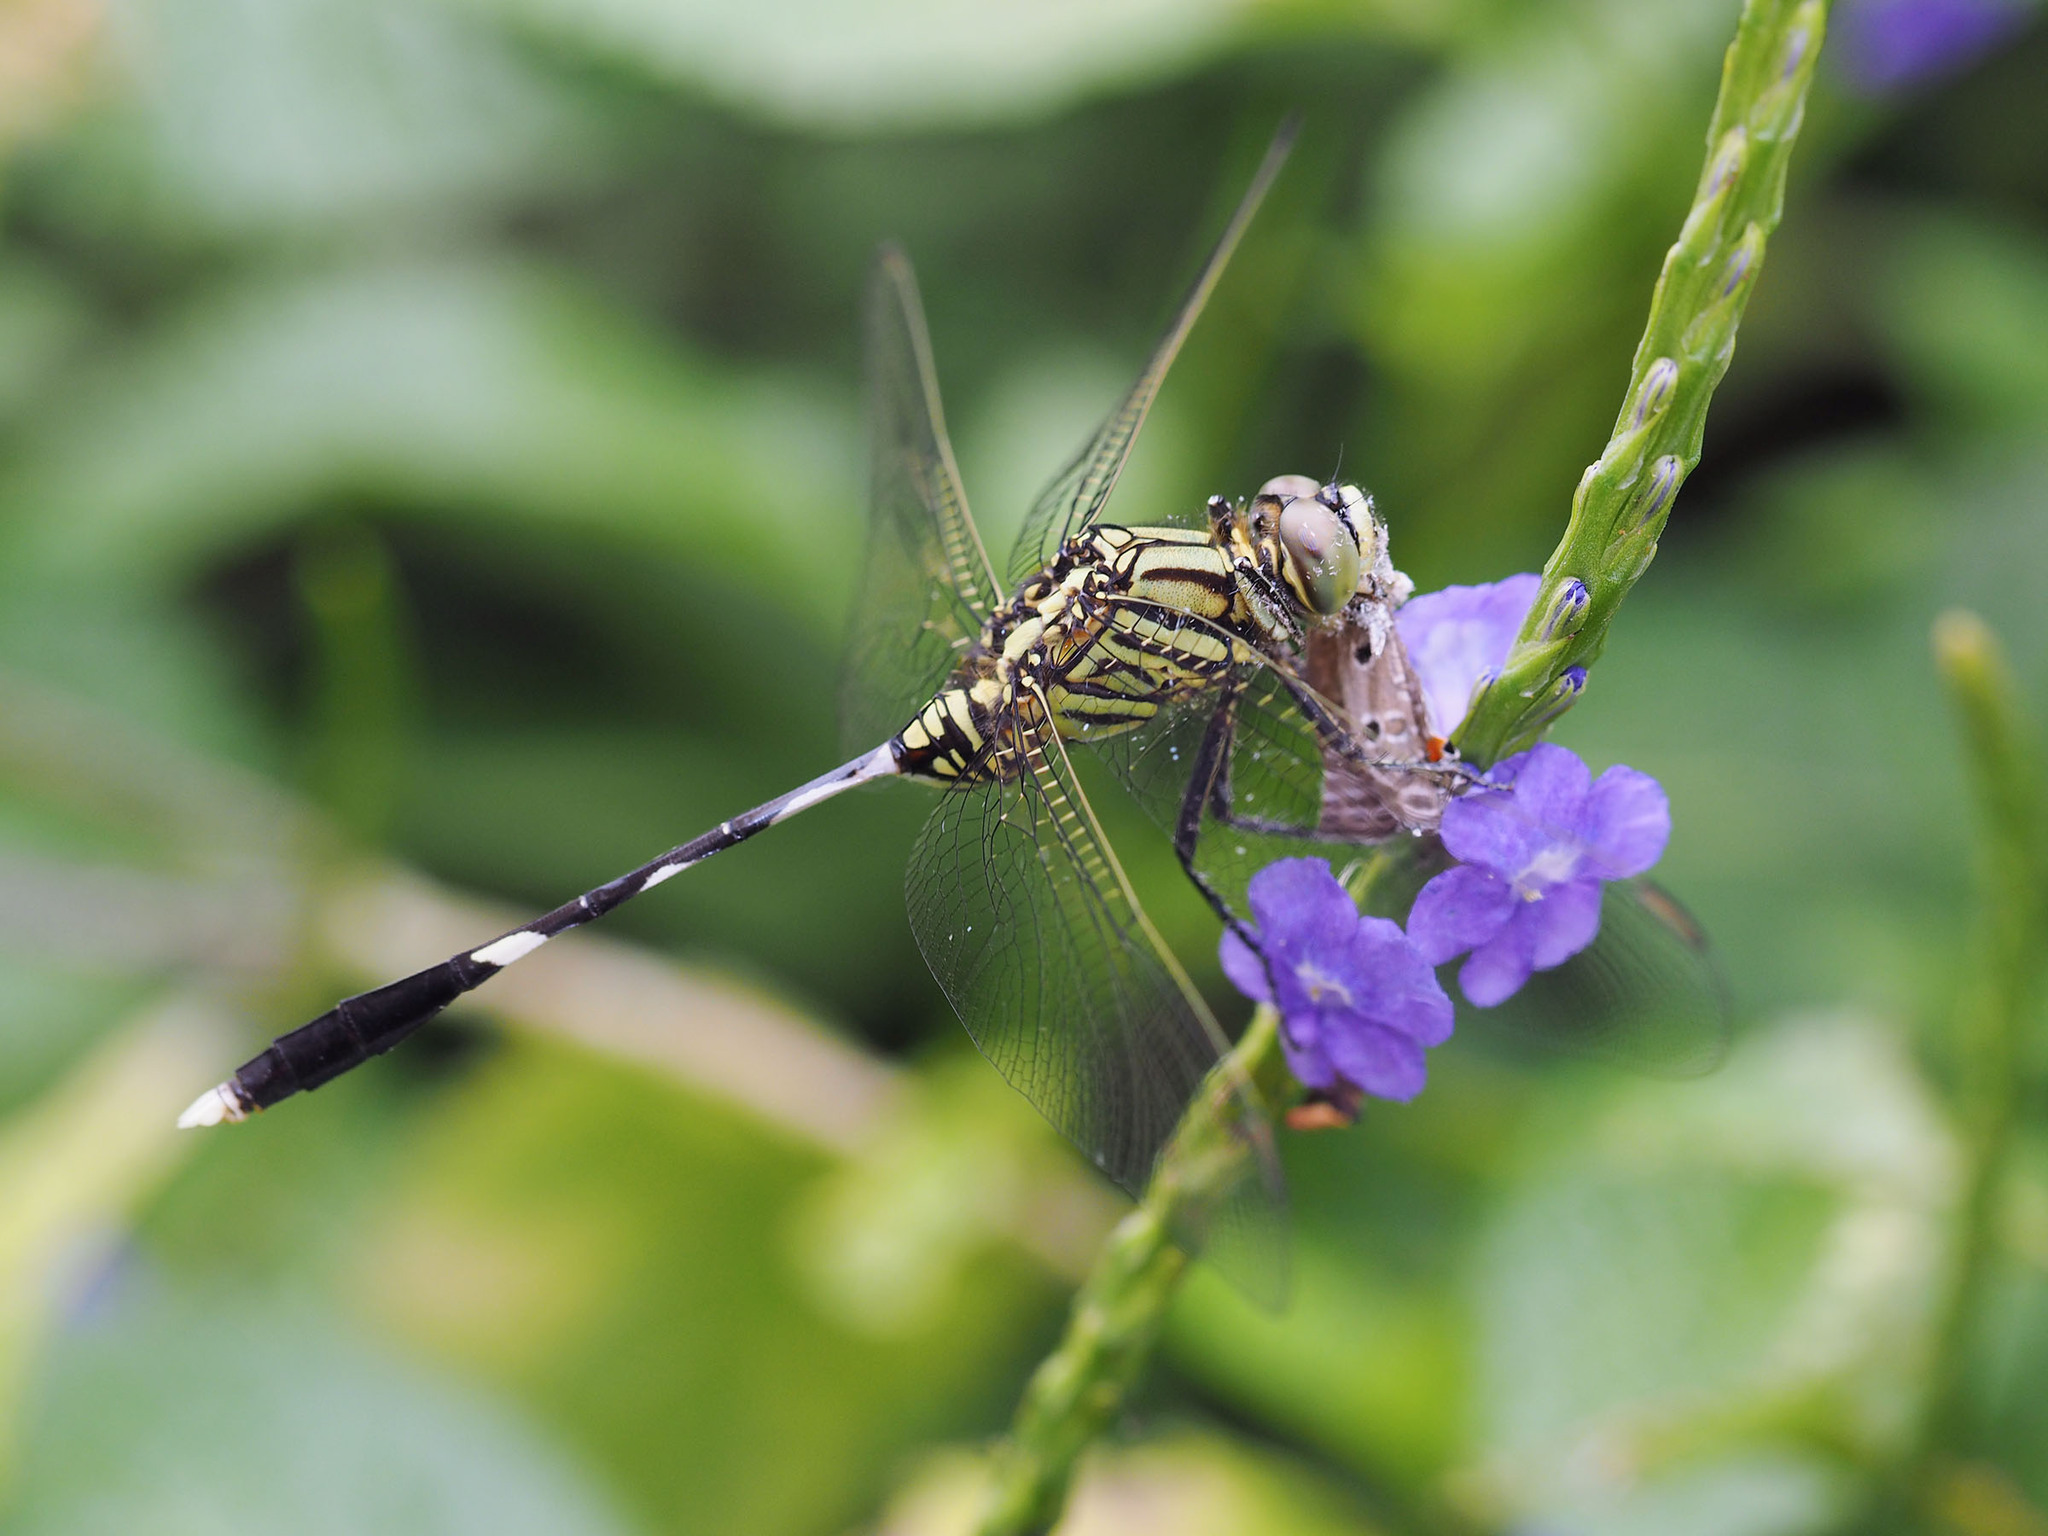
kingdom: Animalia
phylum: Arthropoda
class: Insecta
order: Odonata
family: Libellulidae
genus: Orthetrum
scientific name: Orthetrum sabina
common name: Slender skimmer
